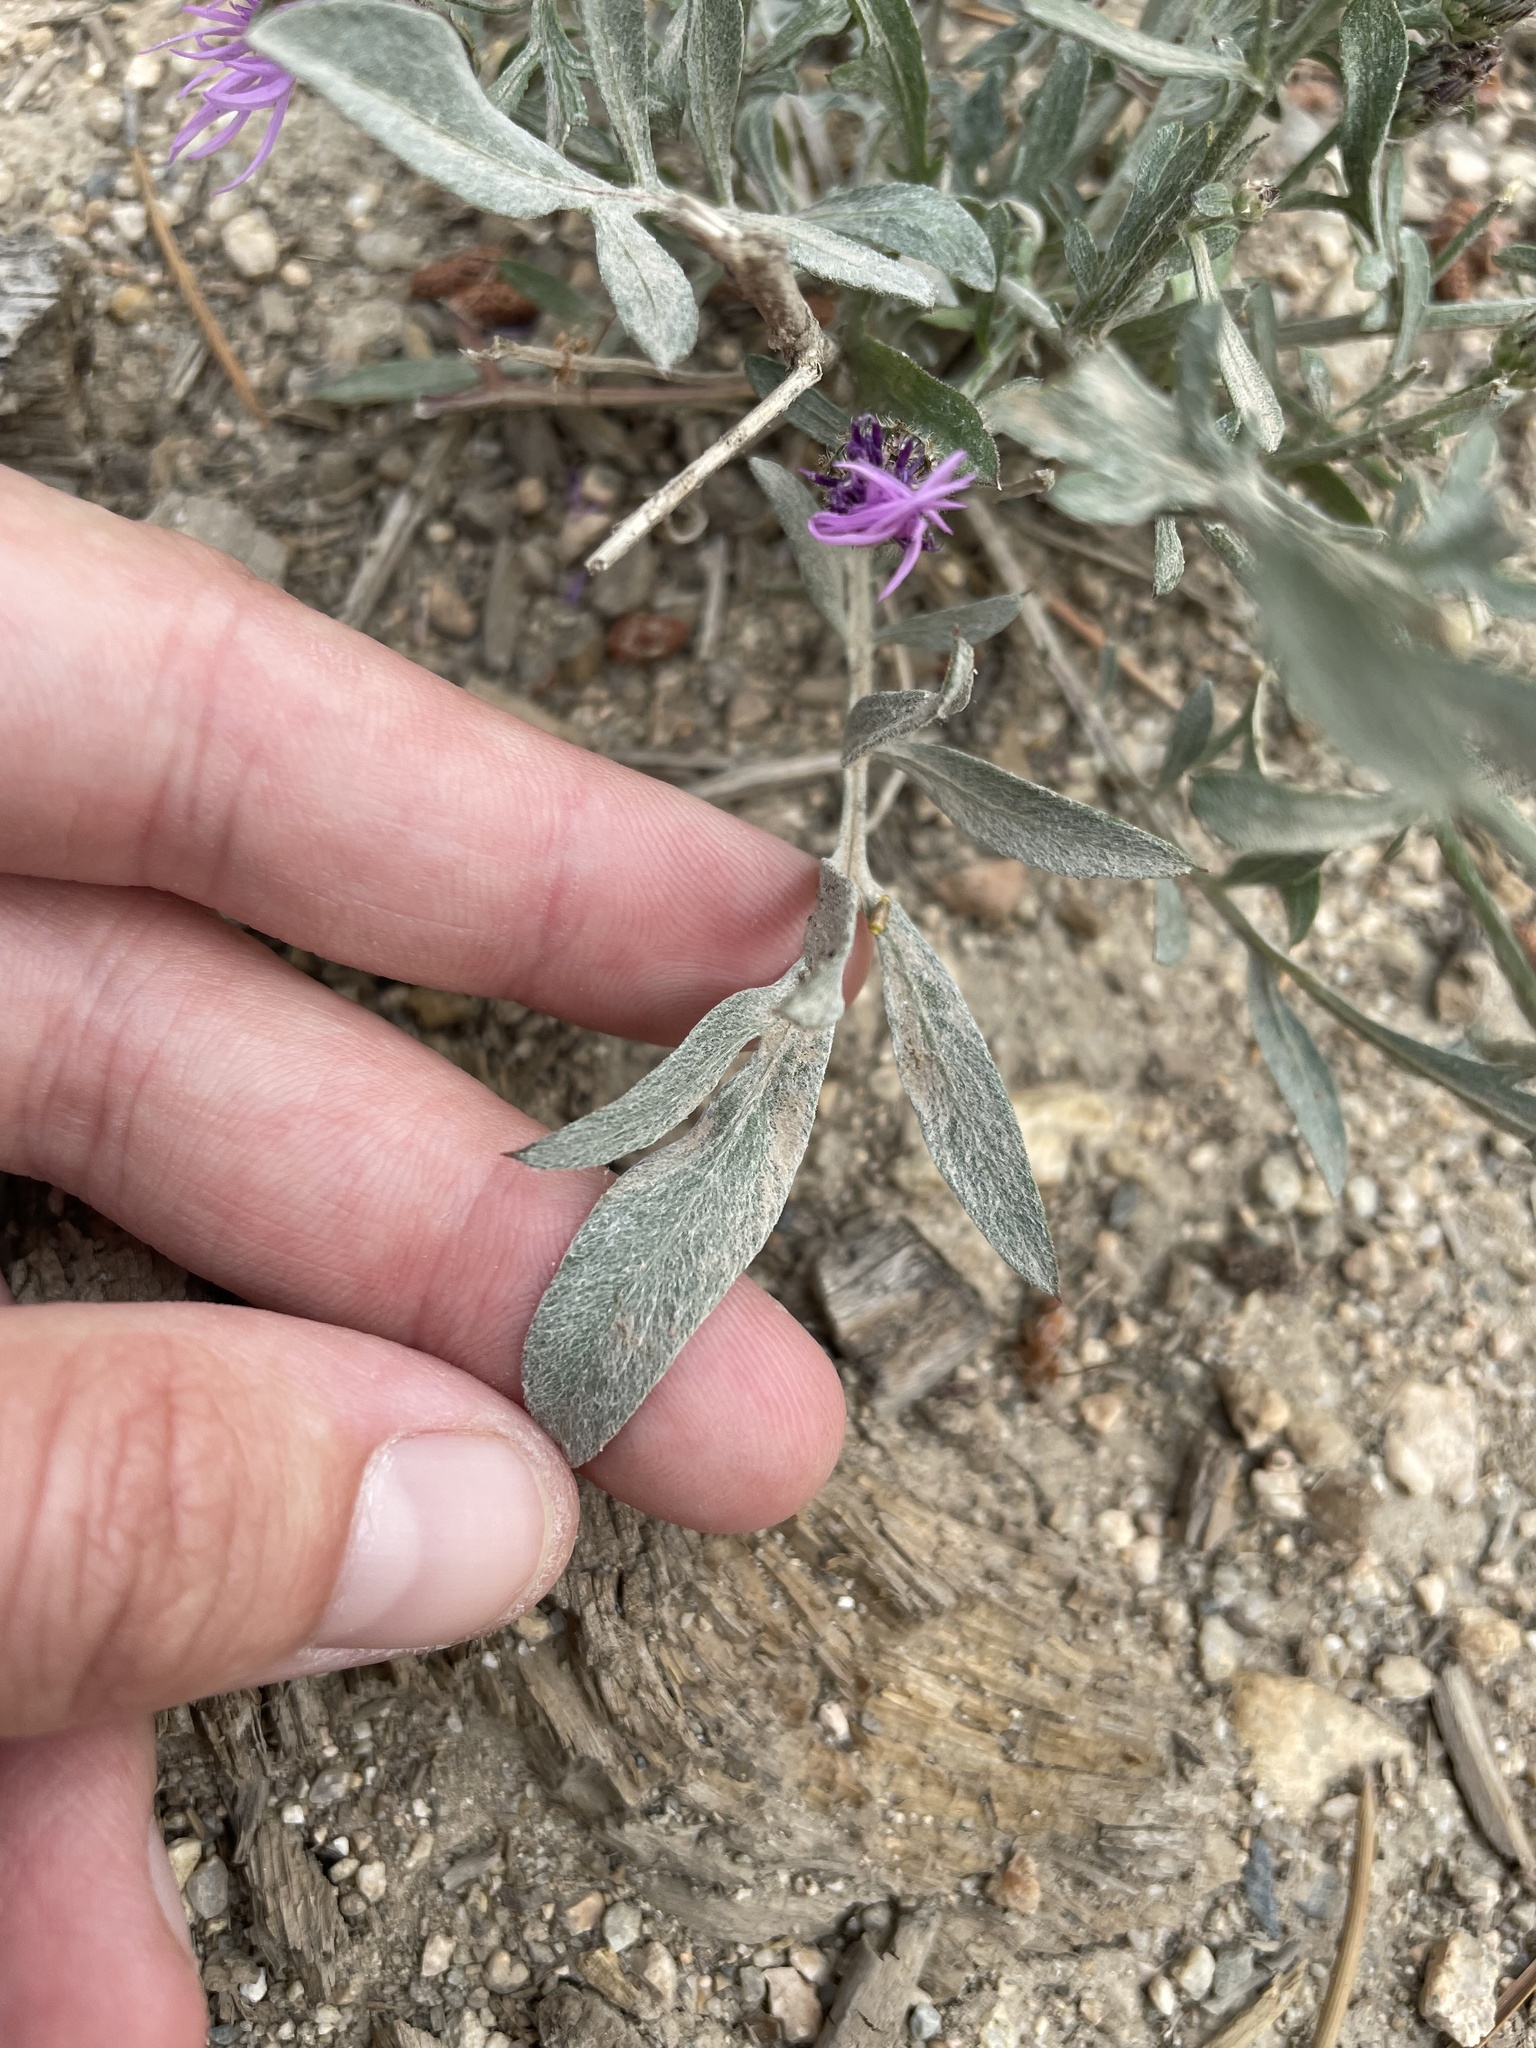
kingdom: Plantae
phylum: Tracheophyta
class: Magnoliopsida
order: Asterales
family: Asteraceae
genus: Centaurea
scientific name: Centaurea stoebe
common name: Spotted knapweed
